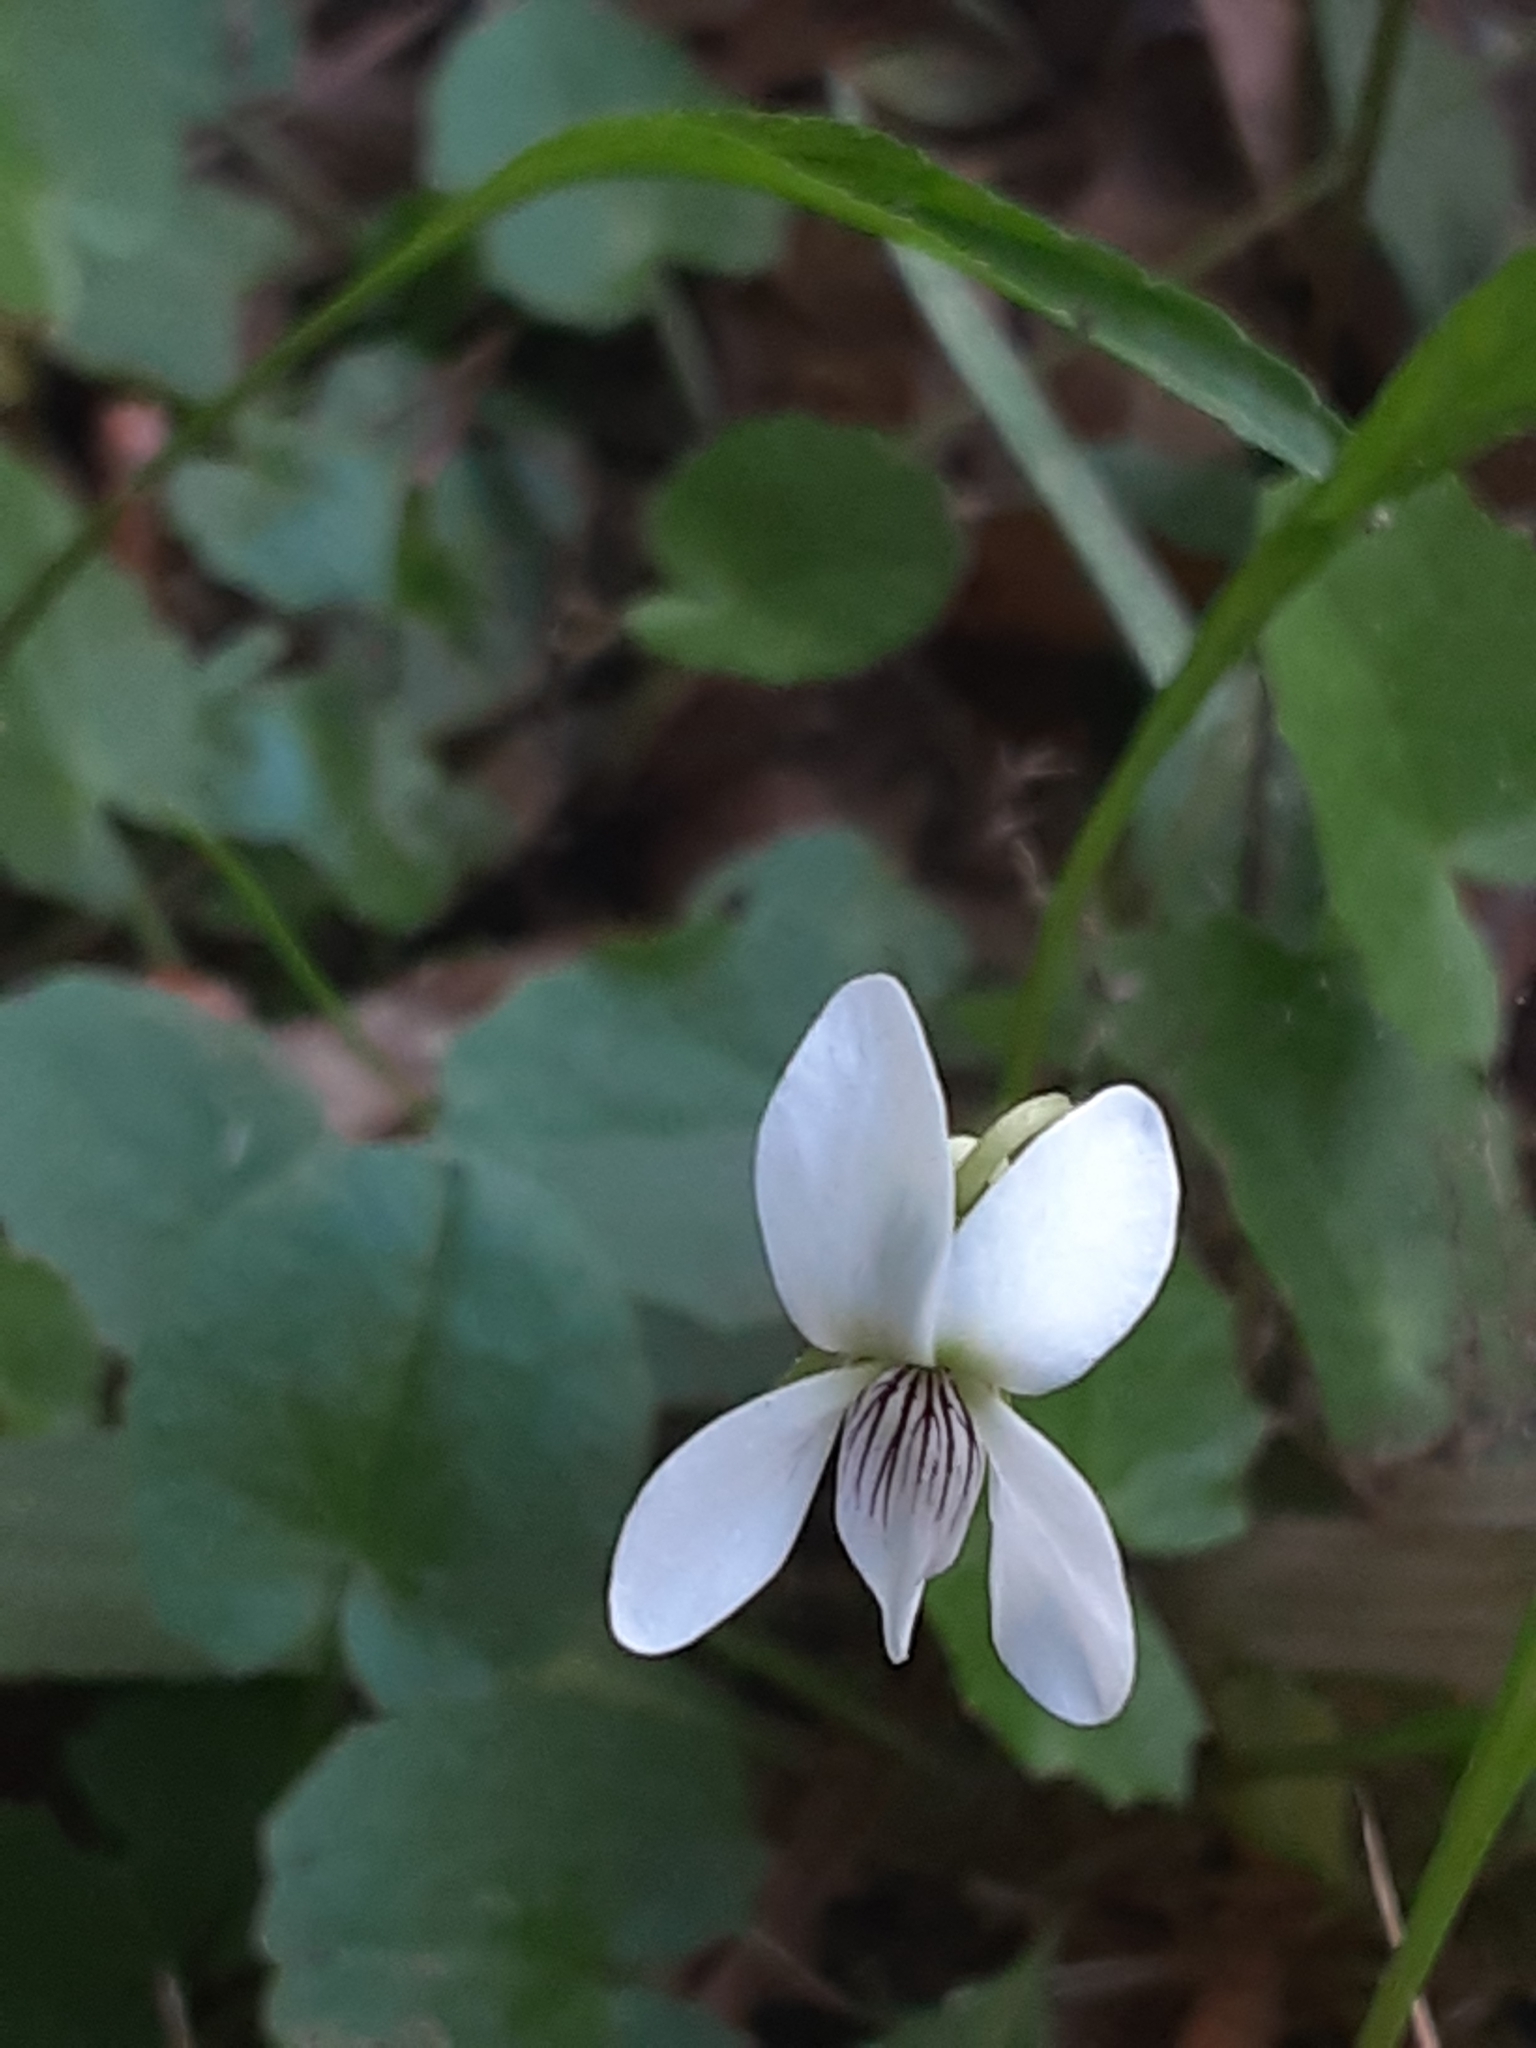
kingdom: Plantae
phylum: Tracheophyta
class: Magnoliopsida
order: Malpighiales
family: Violaceae
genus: Viola
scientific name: Viola vittata
